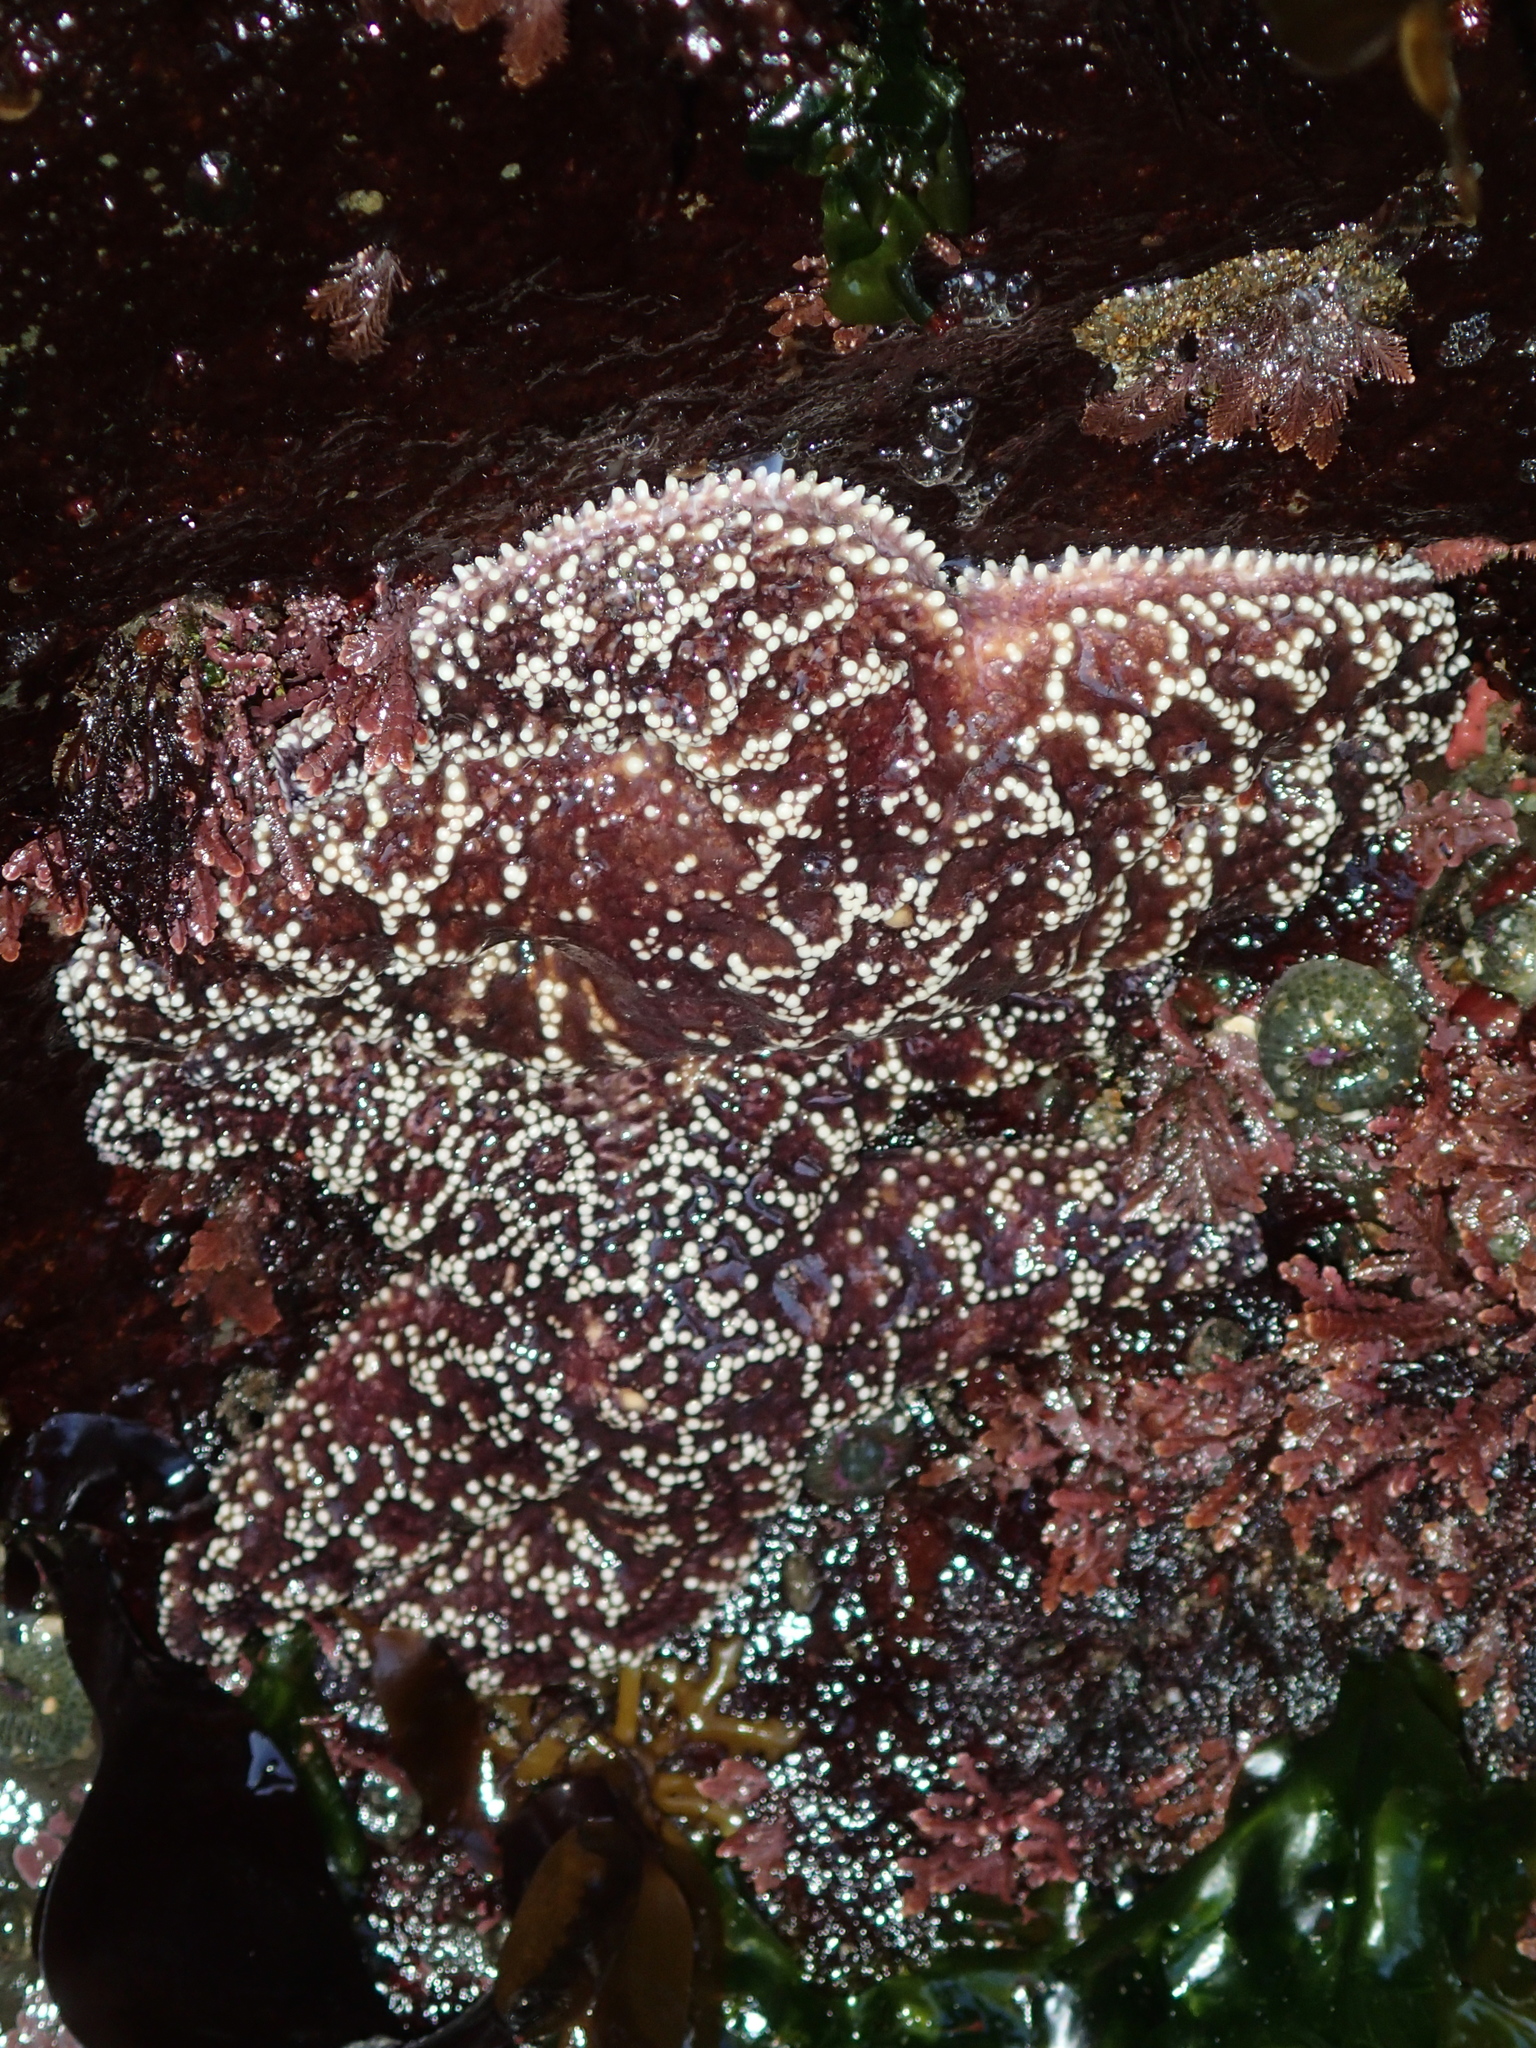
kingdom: Animalia
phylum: Echinodermata
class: Asteroidea
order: Forcipulatida
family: Asteriidae
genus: Pisaster
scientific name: Pisaster ochraceus
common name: Ochre stars
